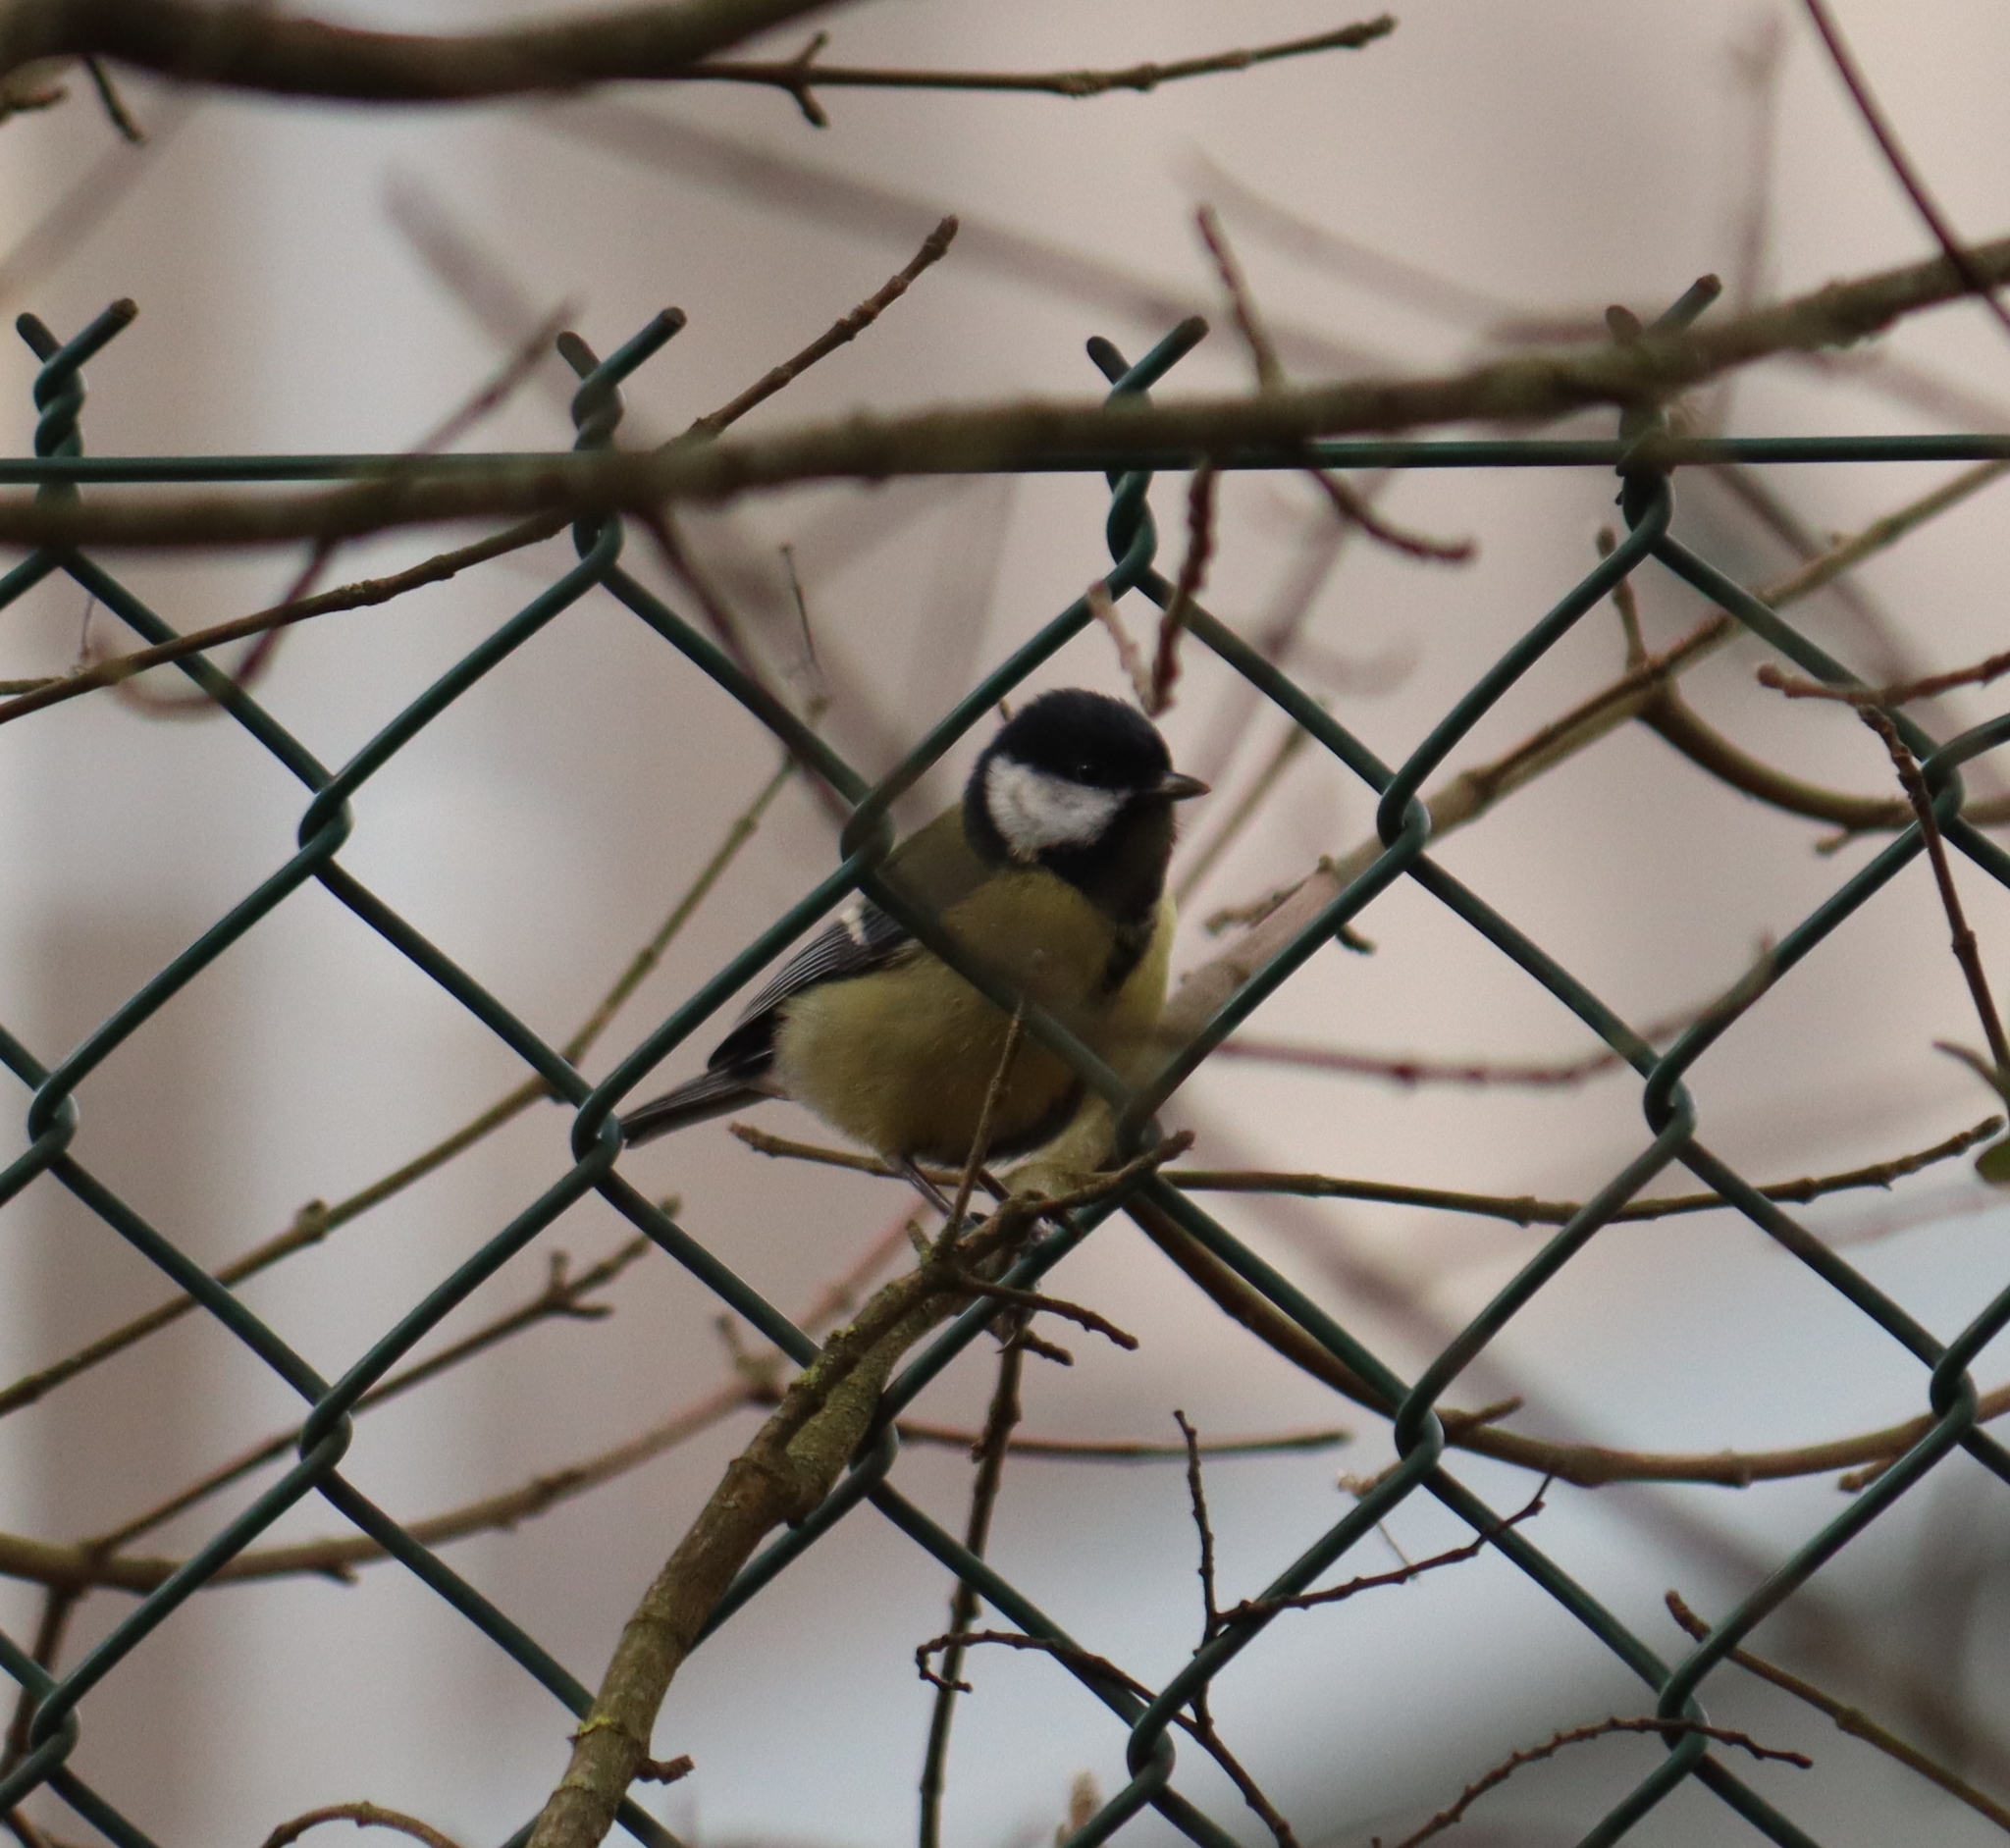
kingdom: Animalia
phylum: Chordata
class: Aves
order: Passeriformes
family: Paridae
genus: Parus
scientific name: Parus major
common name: Great tit
